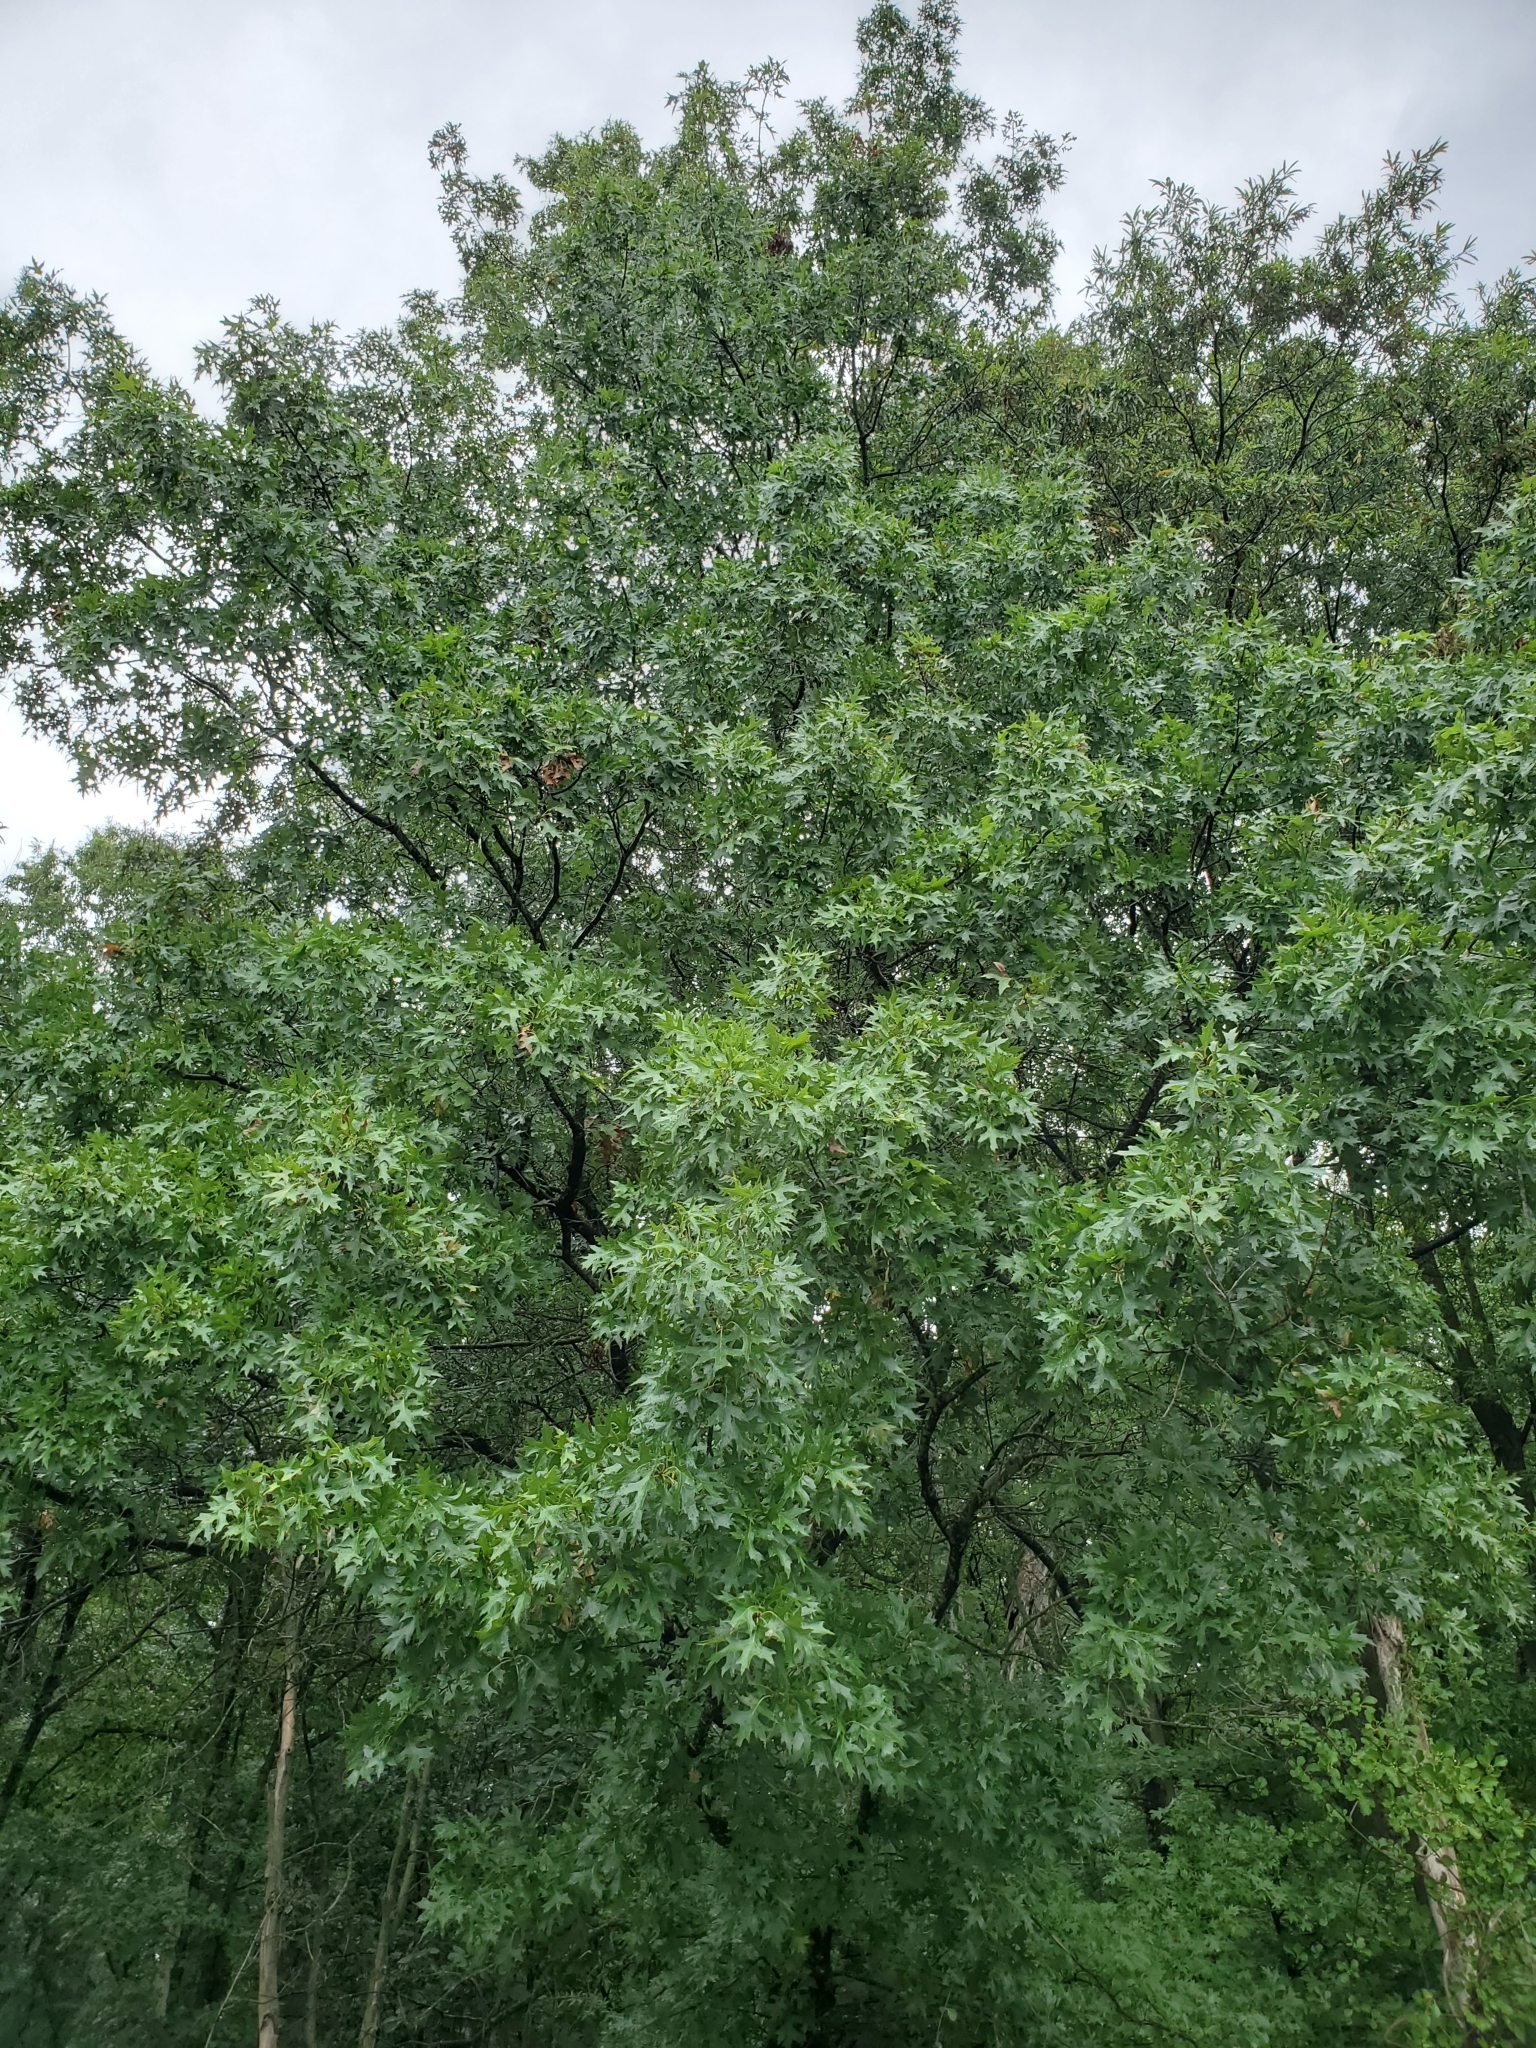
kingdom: Plantae
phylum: Tracheophyta
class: Magnoliopsida
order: Fagales
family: Fagaceae
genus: Quercus
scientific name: Quercus palustris
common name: Pin oak
